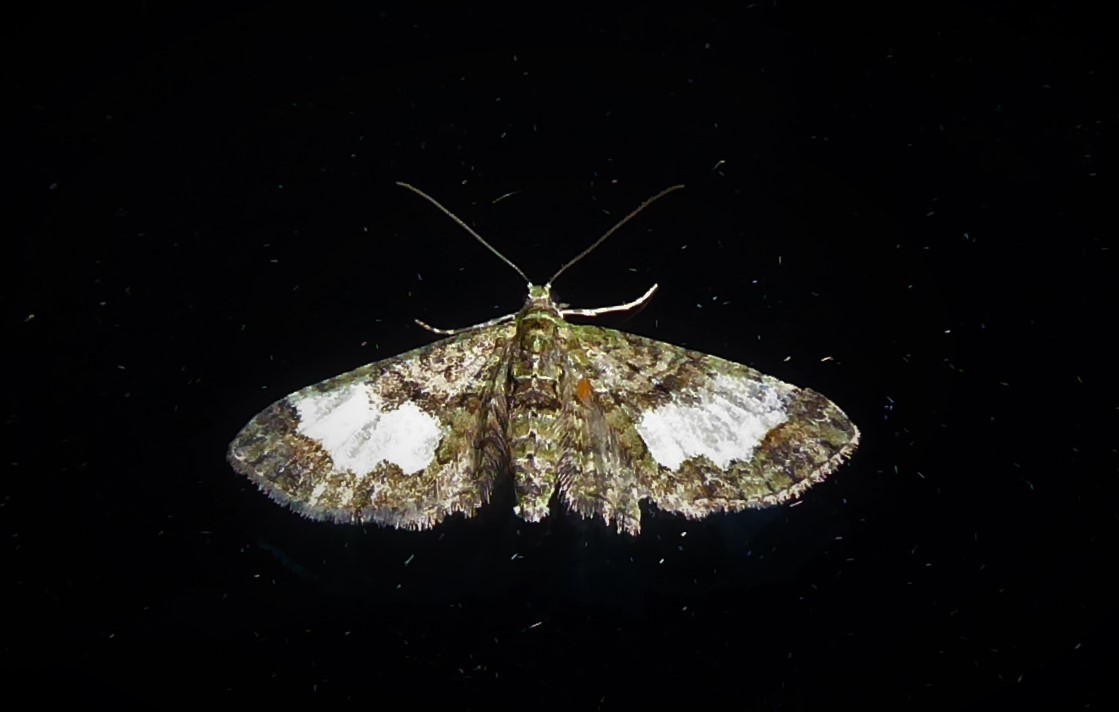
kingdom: Animalia
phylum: Arthropoda
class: Insecta
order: Lepidoptera
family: Geometridae
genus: Idaea
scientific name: Idaea mutanda
